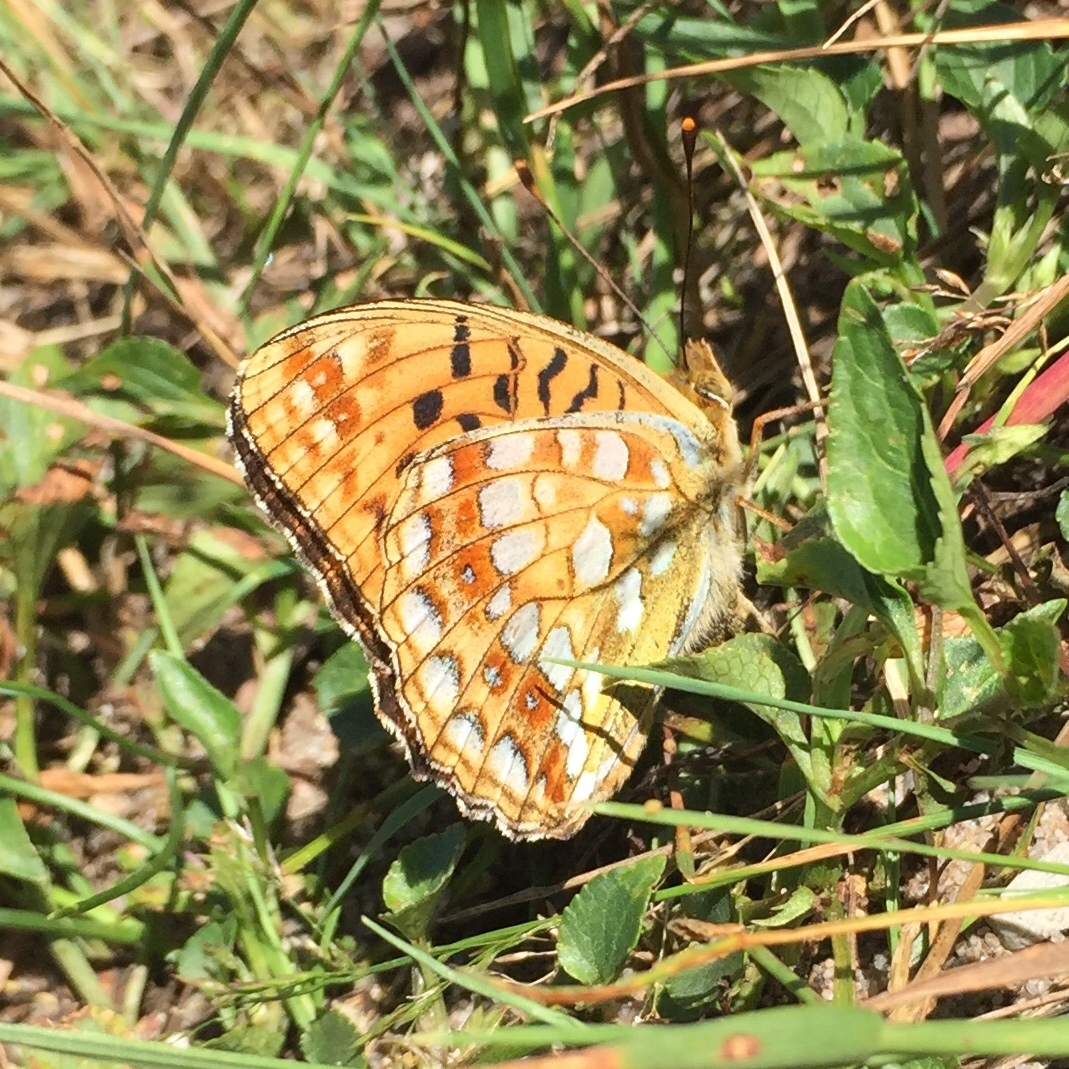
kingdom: Animalia
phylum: Arthropoda
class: Insecta
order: Lepidoptera
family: Nymphalidae
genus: Fabriciana
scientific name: Fabriciana adippe
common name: High brown fritillary
